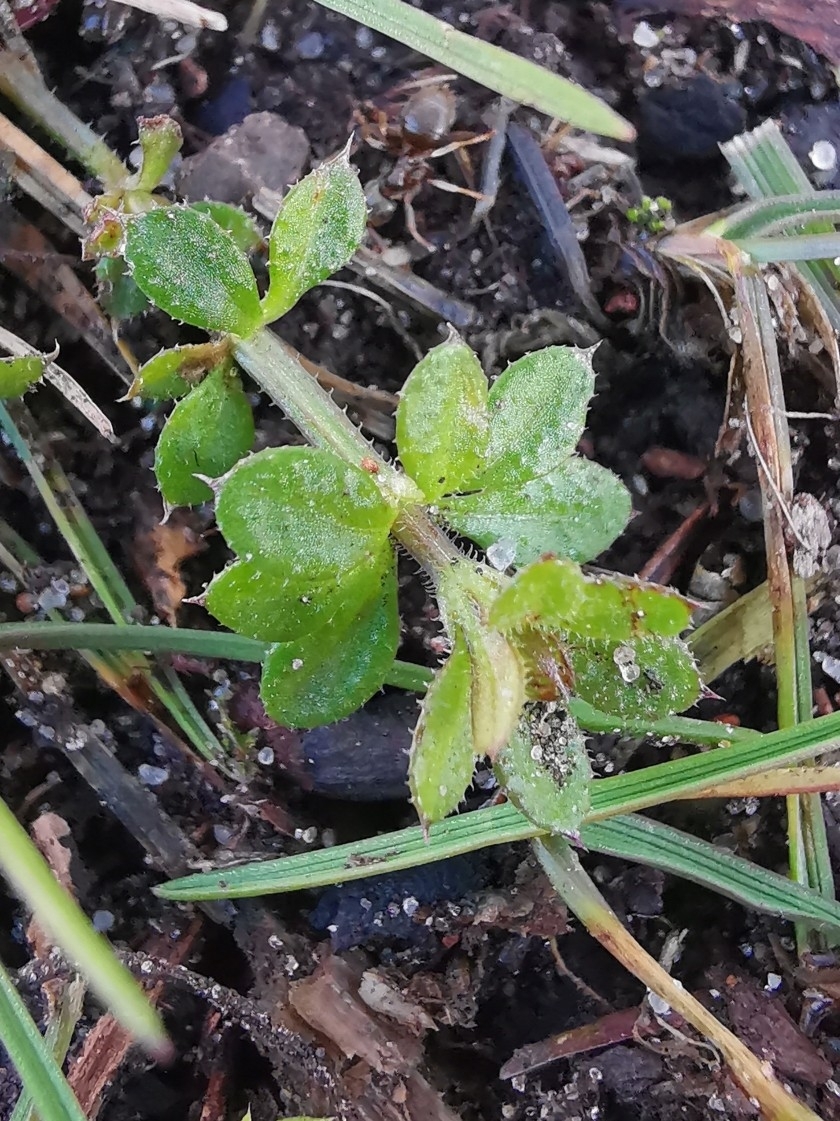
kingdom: Plantae
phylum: Tracheophyta
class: Magnoliopsida
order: Gentianales
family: Rubiaceae
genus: Galium
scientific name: Galium aparine
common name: Cleavers
